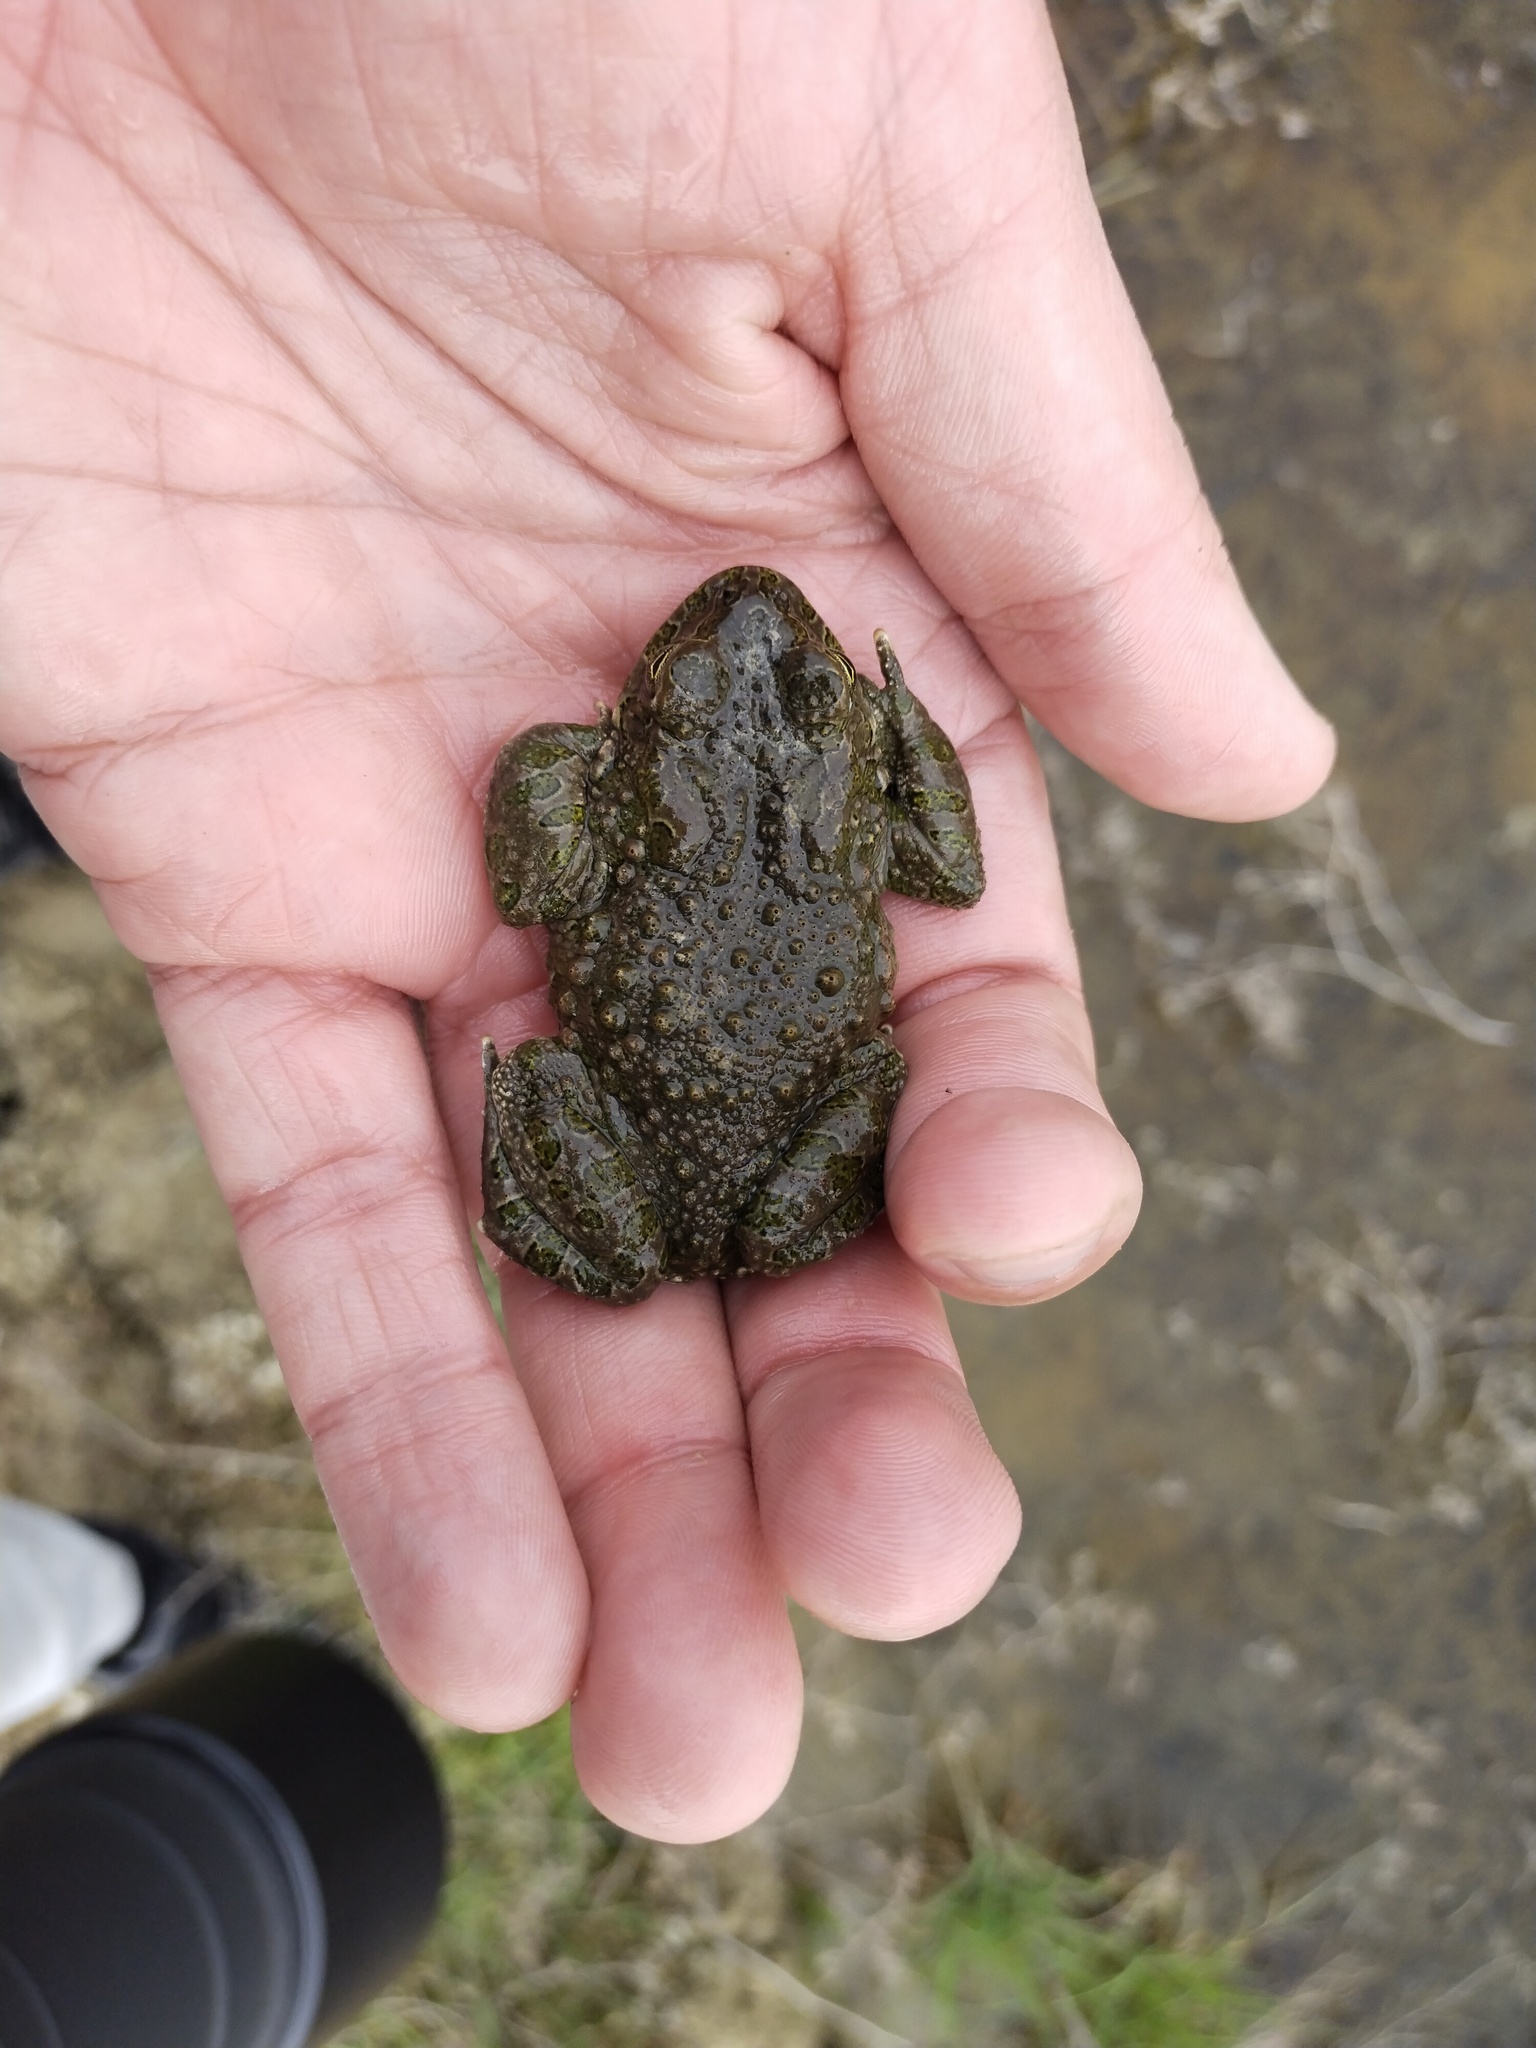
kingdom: Animalia
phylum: Chordata
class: Amphibia
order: Anura
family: Bufonidae
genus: Bufotes
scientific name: Bufotes viridis
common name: European green toad
